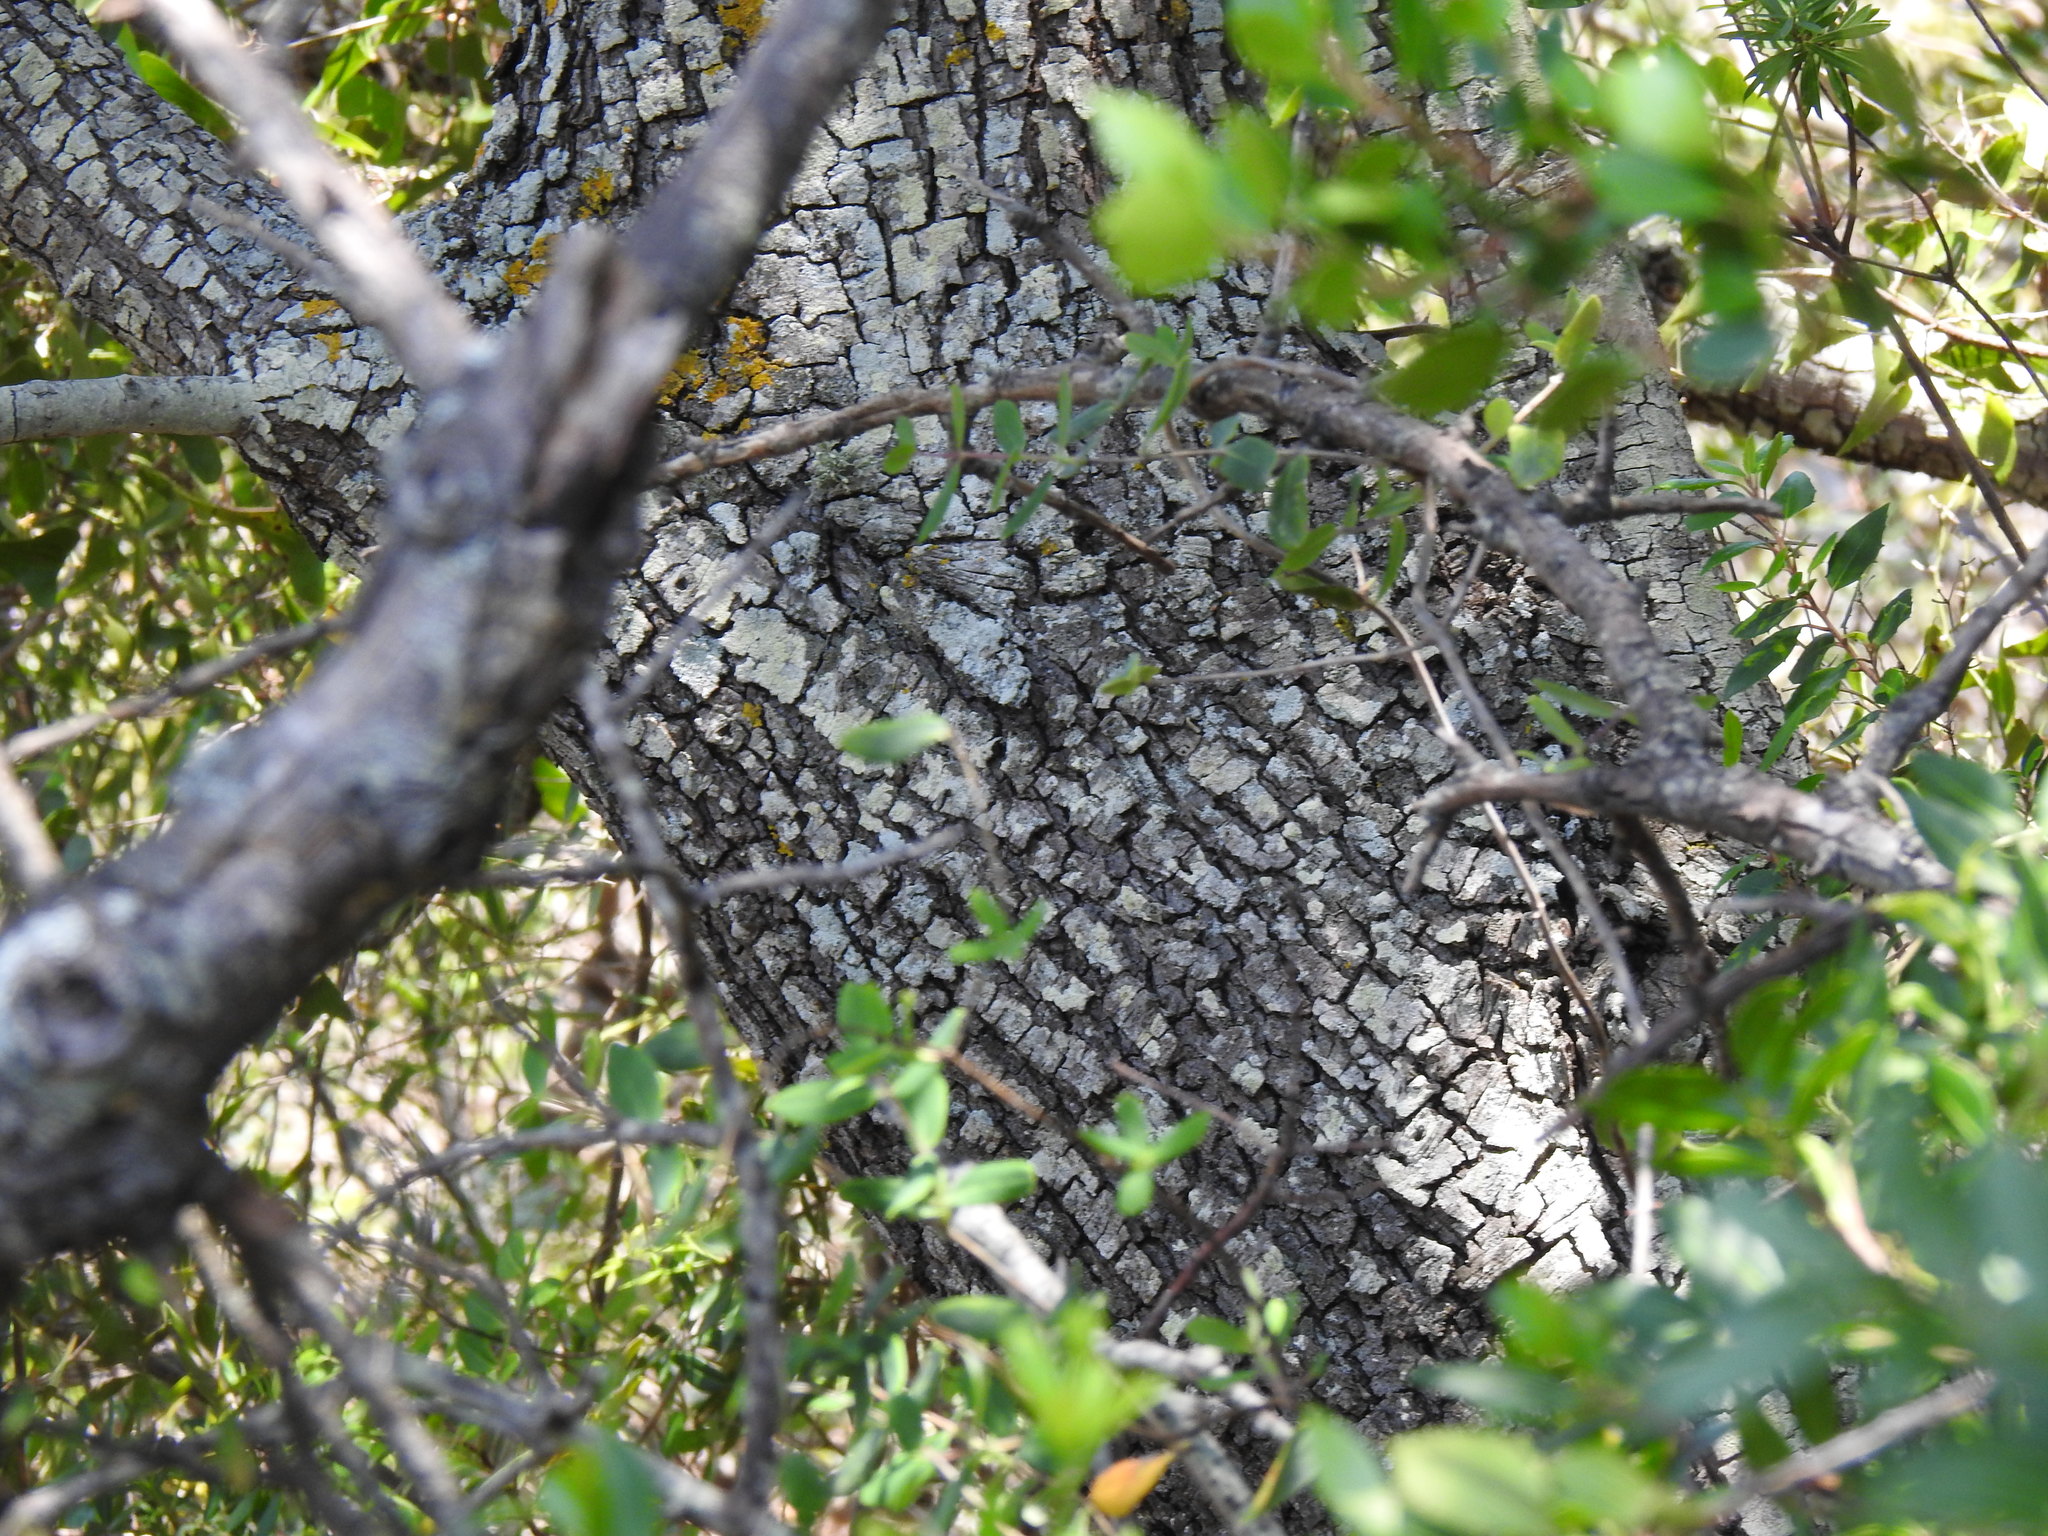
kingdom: Plantae
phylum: Tracheophyta
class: Magnoliopsida
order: Fagales
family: Fagaceae
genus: Quercus
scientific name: Quercus rotundifolia
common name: Holm oak
